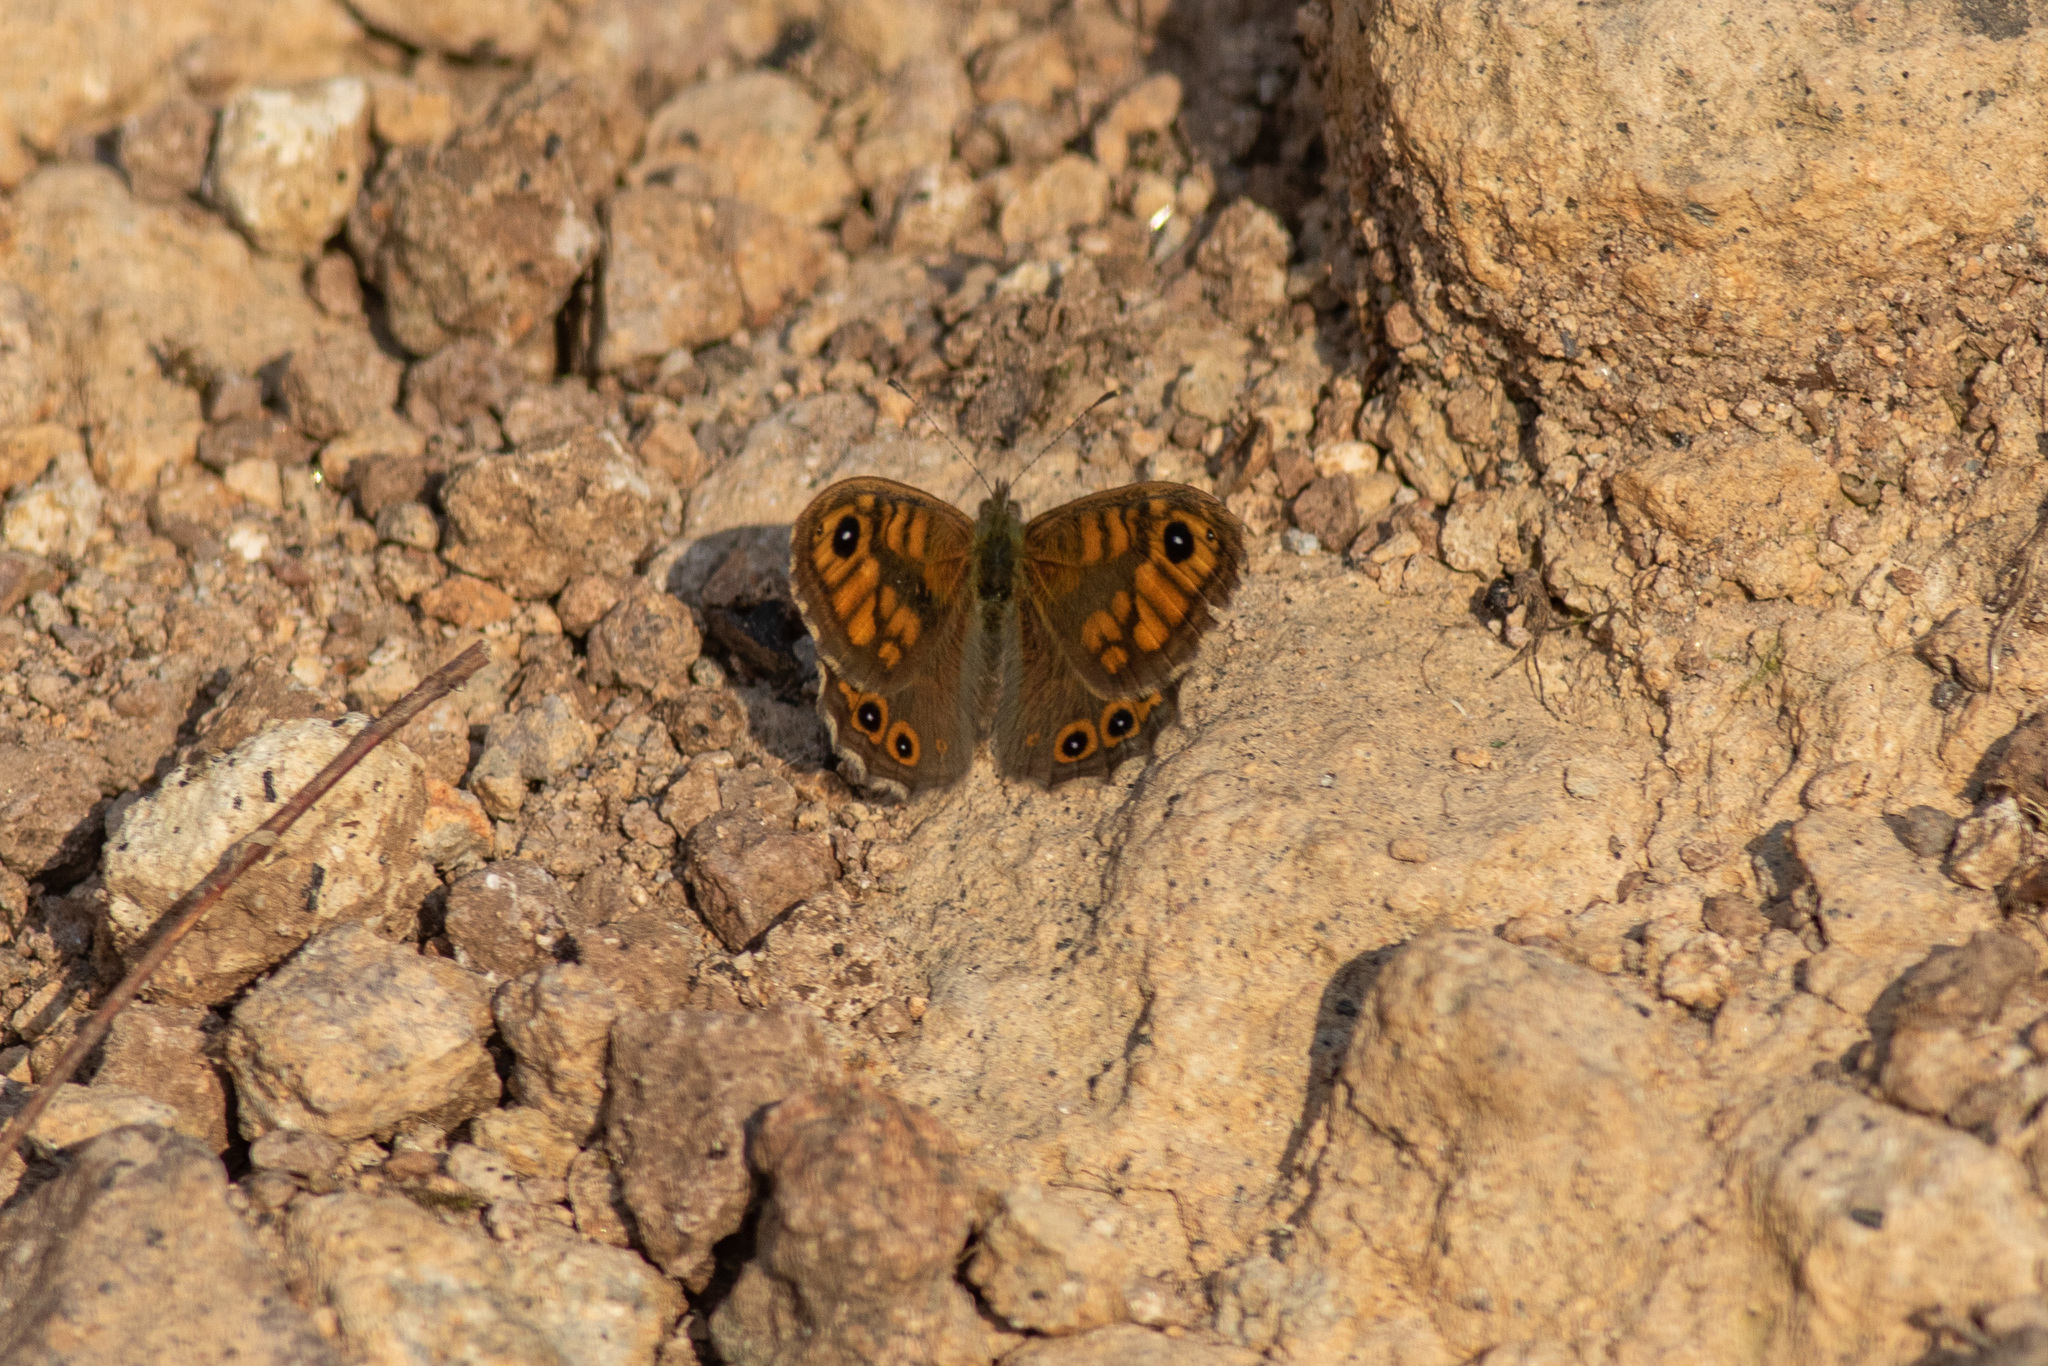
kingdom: Animalia
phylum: Arthropoda
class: Insecta
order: Lepidoptera
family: Nymphalidae
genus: Pararge
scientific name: Pararge Lasiommata megera
